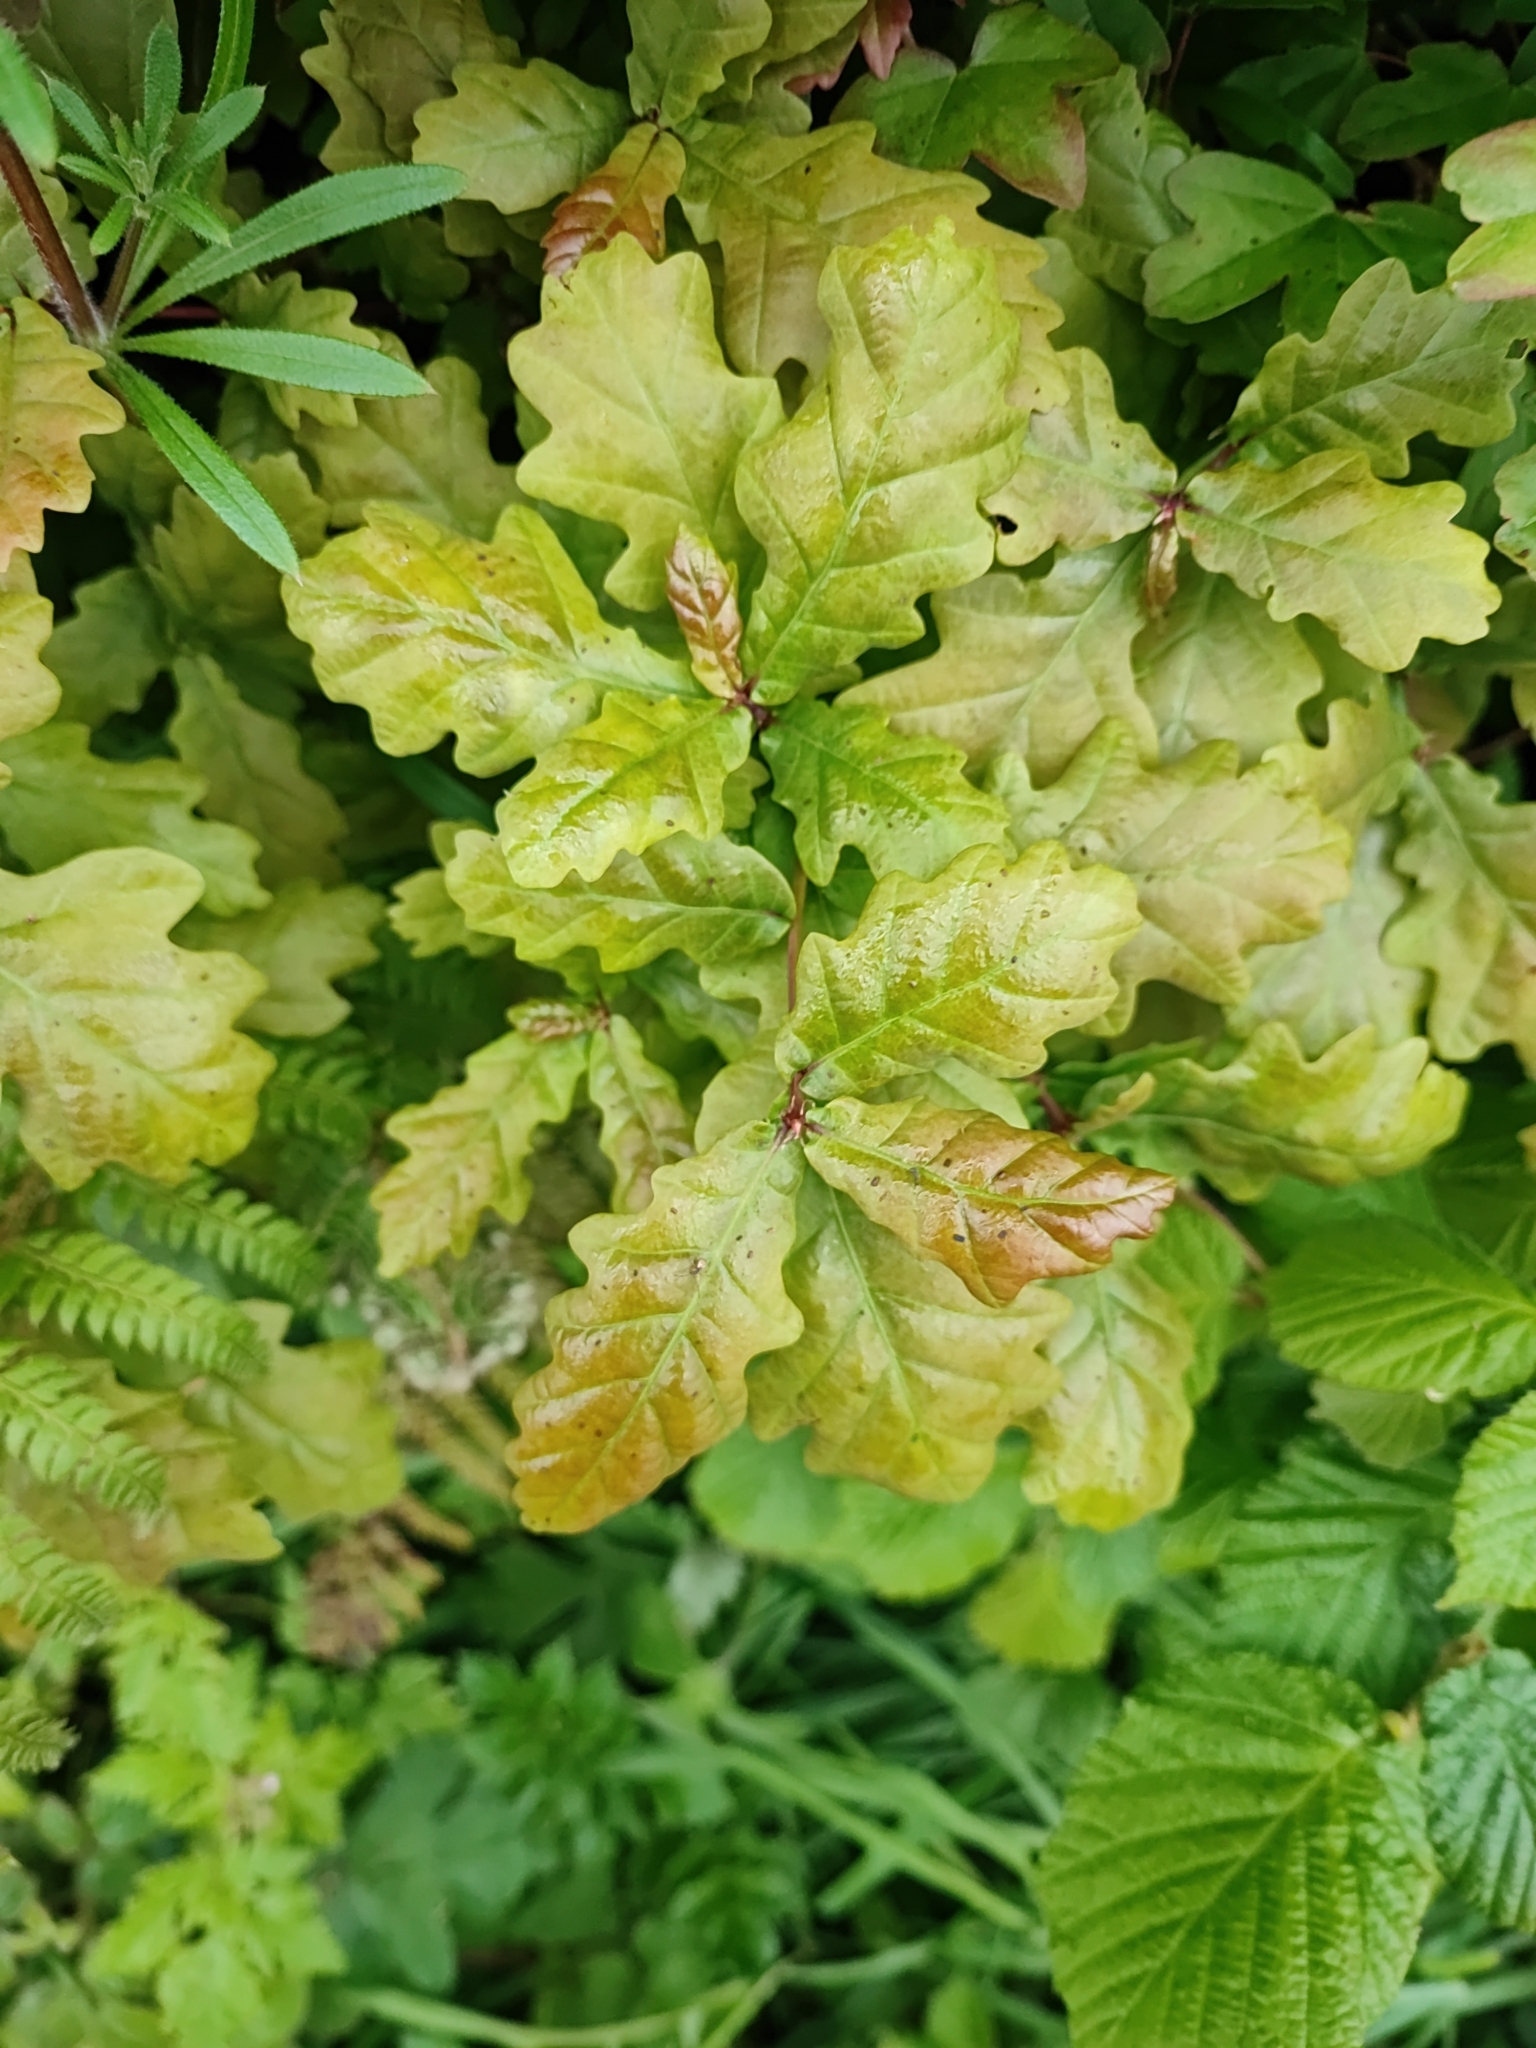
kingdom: Plantae
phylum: Tracheophyta
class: Magnoliopsida
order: Fagales
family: Fagaceae
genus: Quercus
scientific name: Quercus robur
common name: Pedunculate oak
